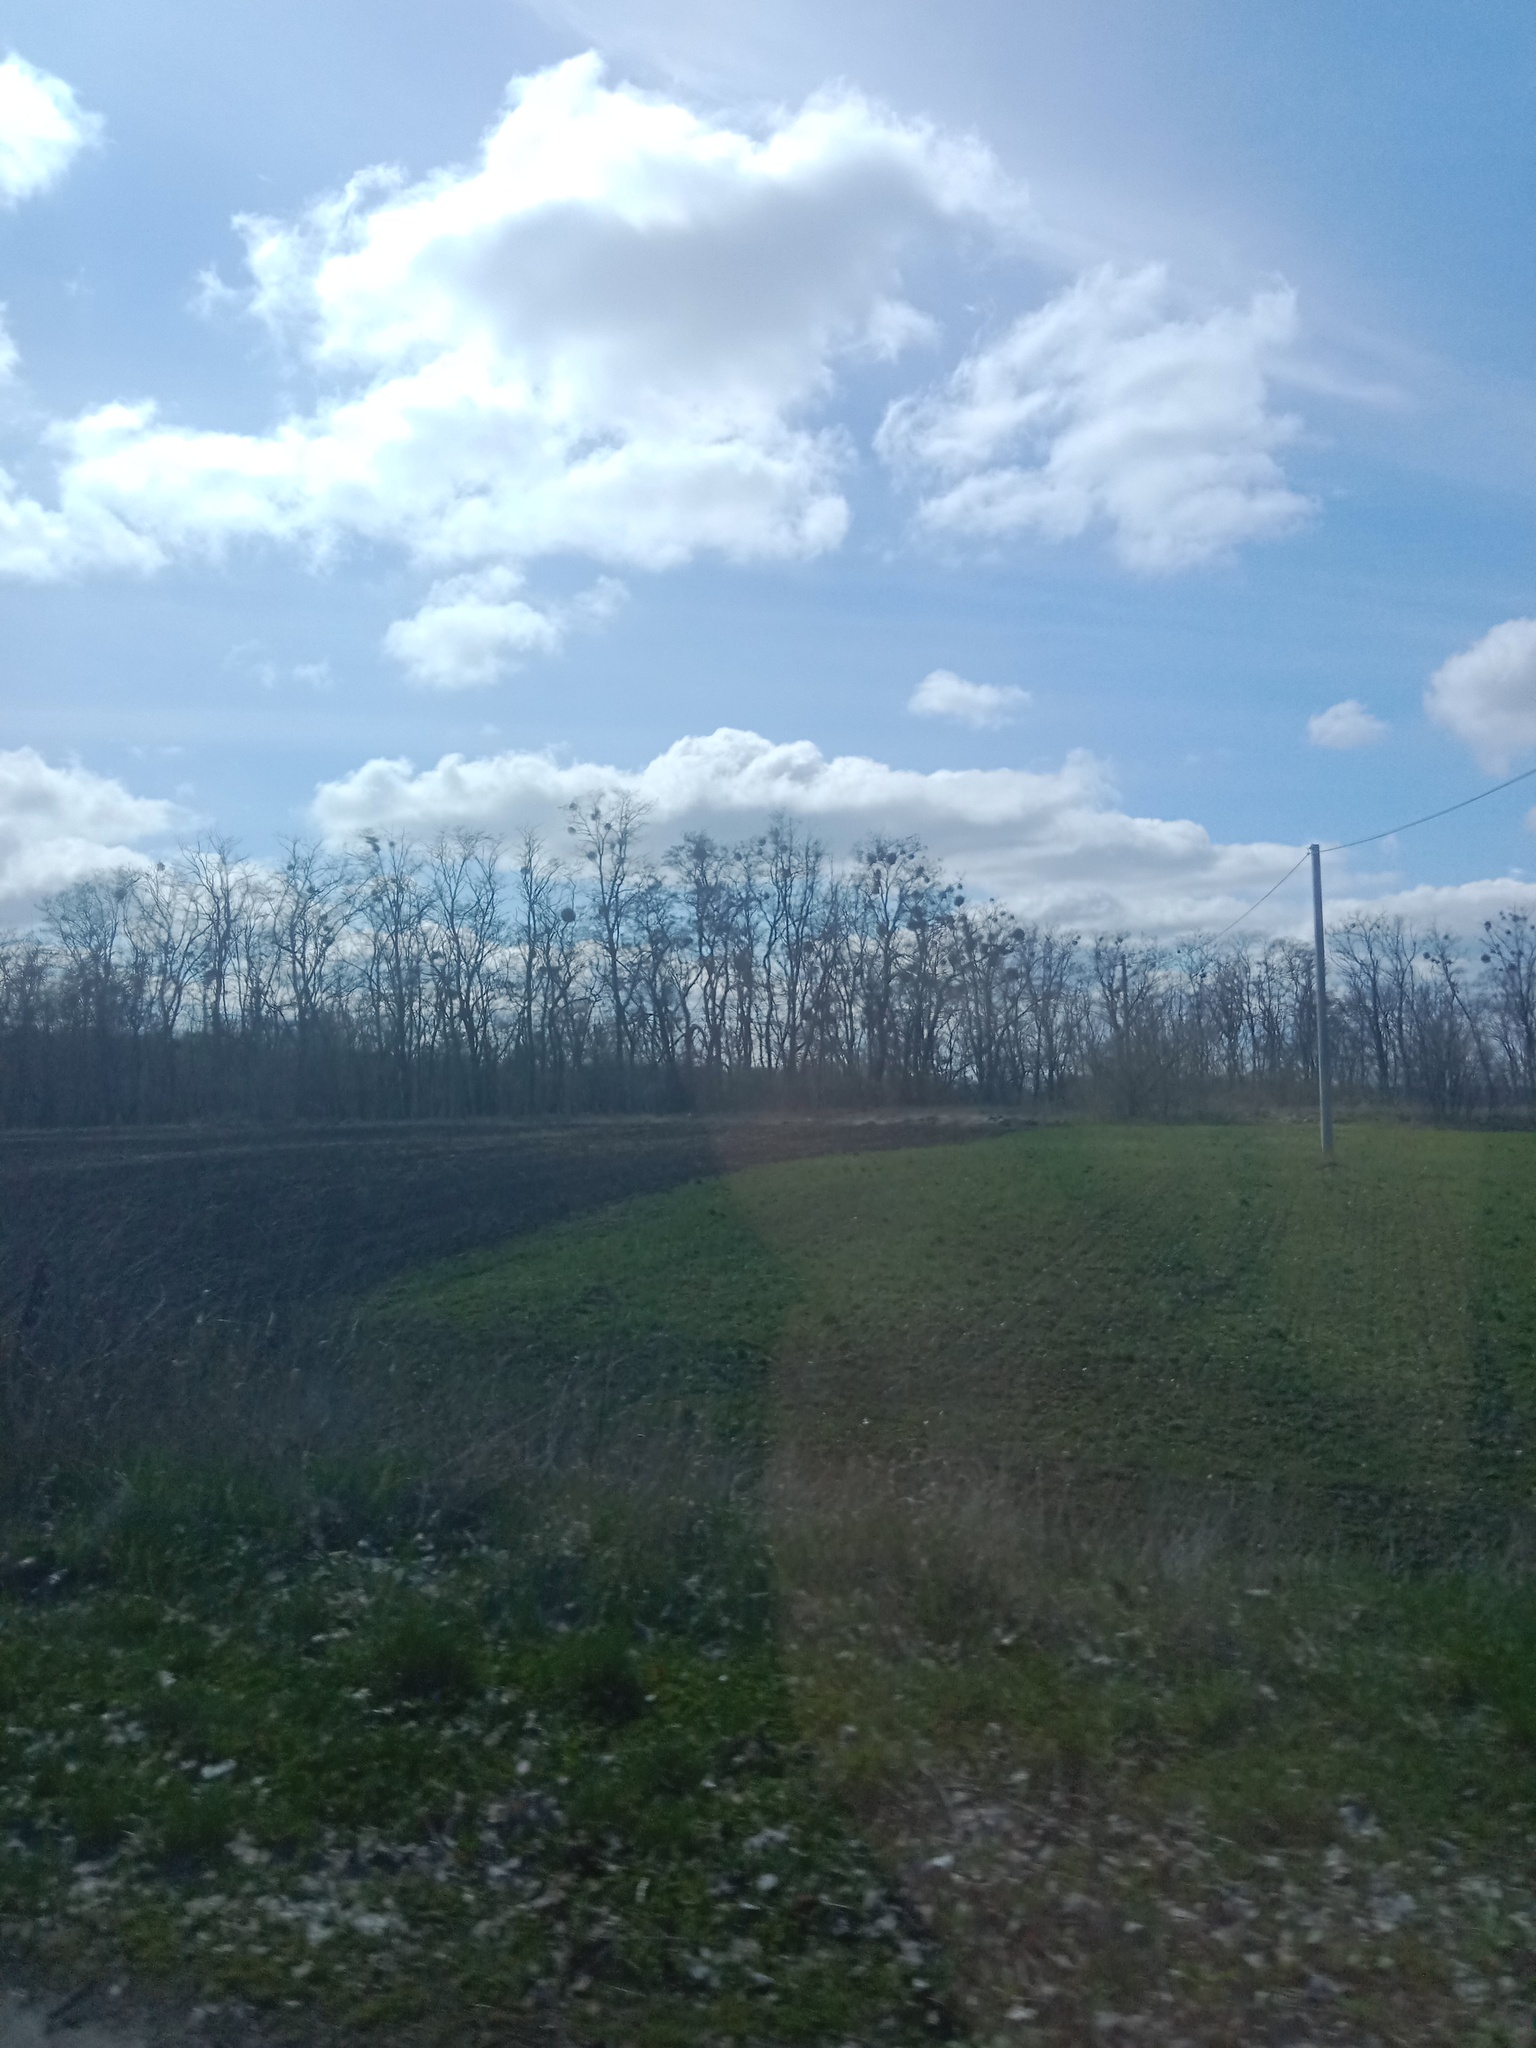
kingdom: Plantae
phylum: Tracheophyta
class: Magnoliopsida
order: Santalales
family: Viscaceae
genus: Viscum
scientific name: Viscum album
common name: Mistletoe
